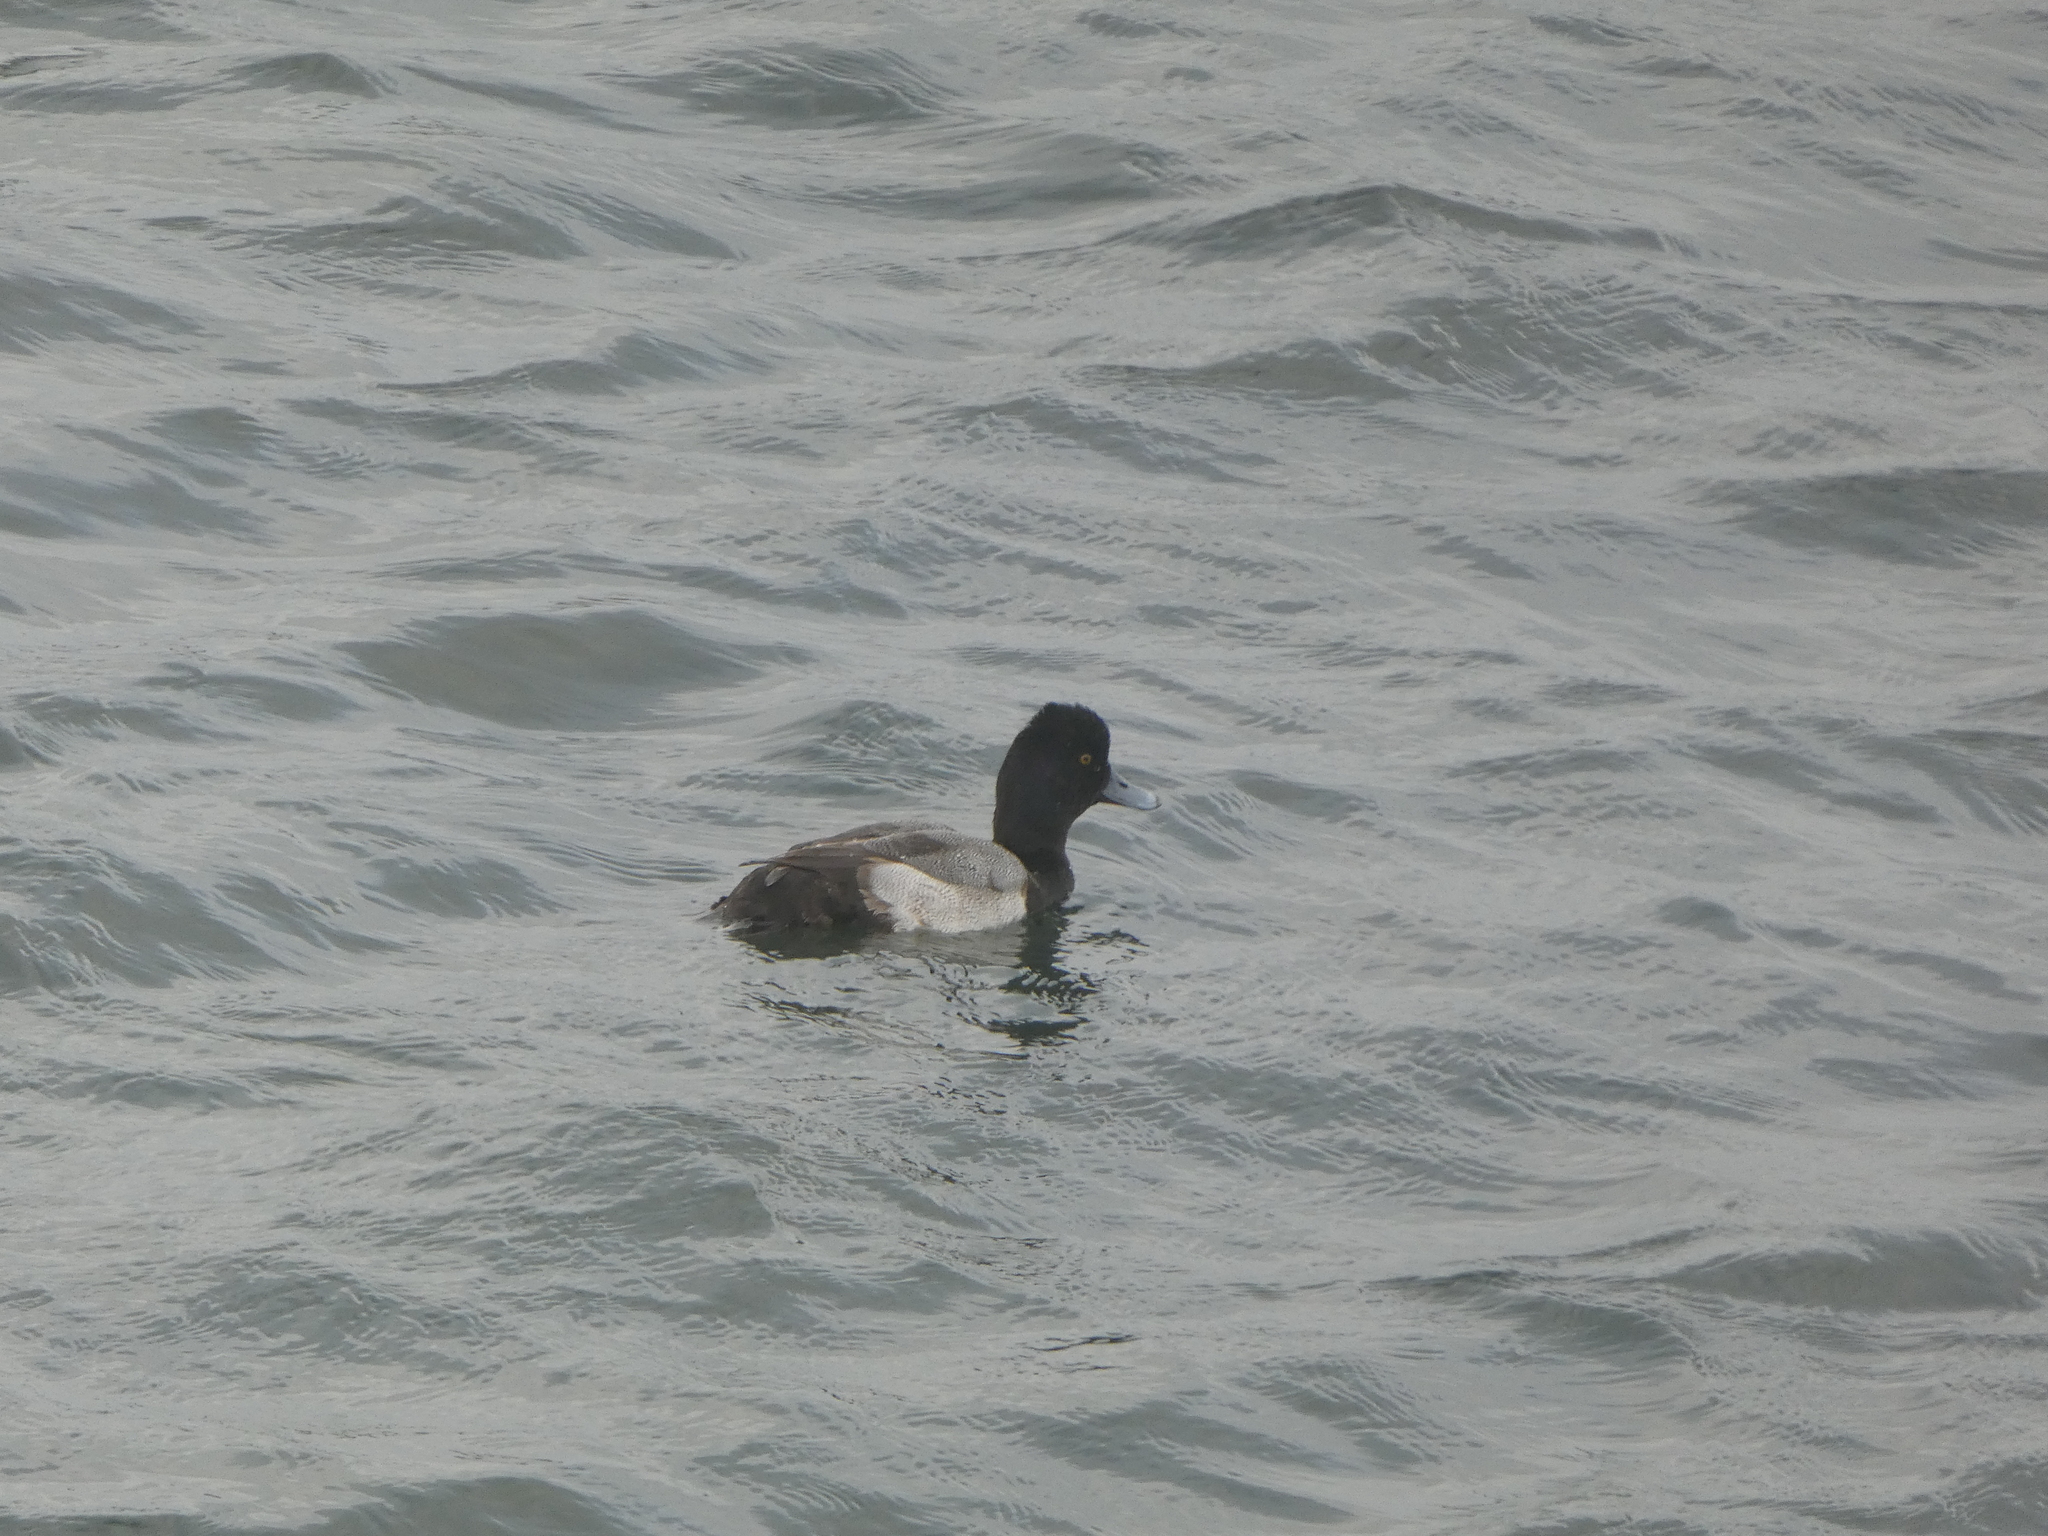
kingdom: Animalia
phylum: Chordata
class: Aves
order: Anseriformes
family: Anatidae
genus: Aythya
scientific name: Aythya affinis
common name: Lesser scaup
